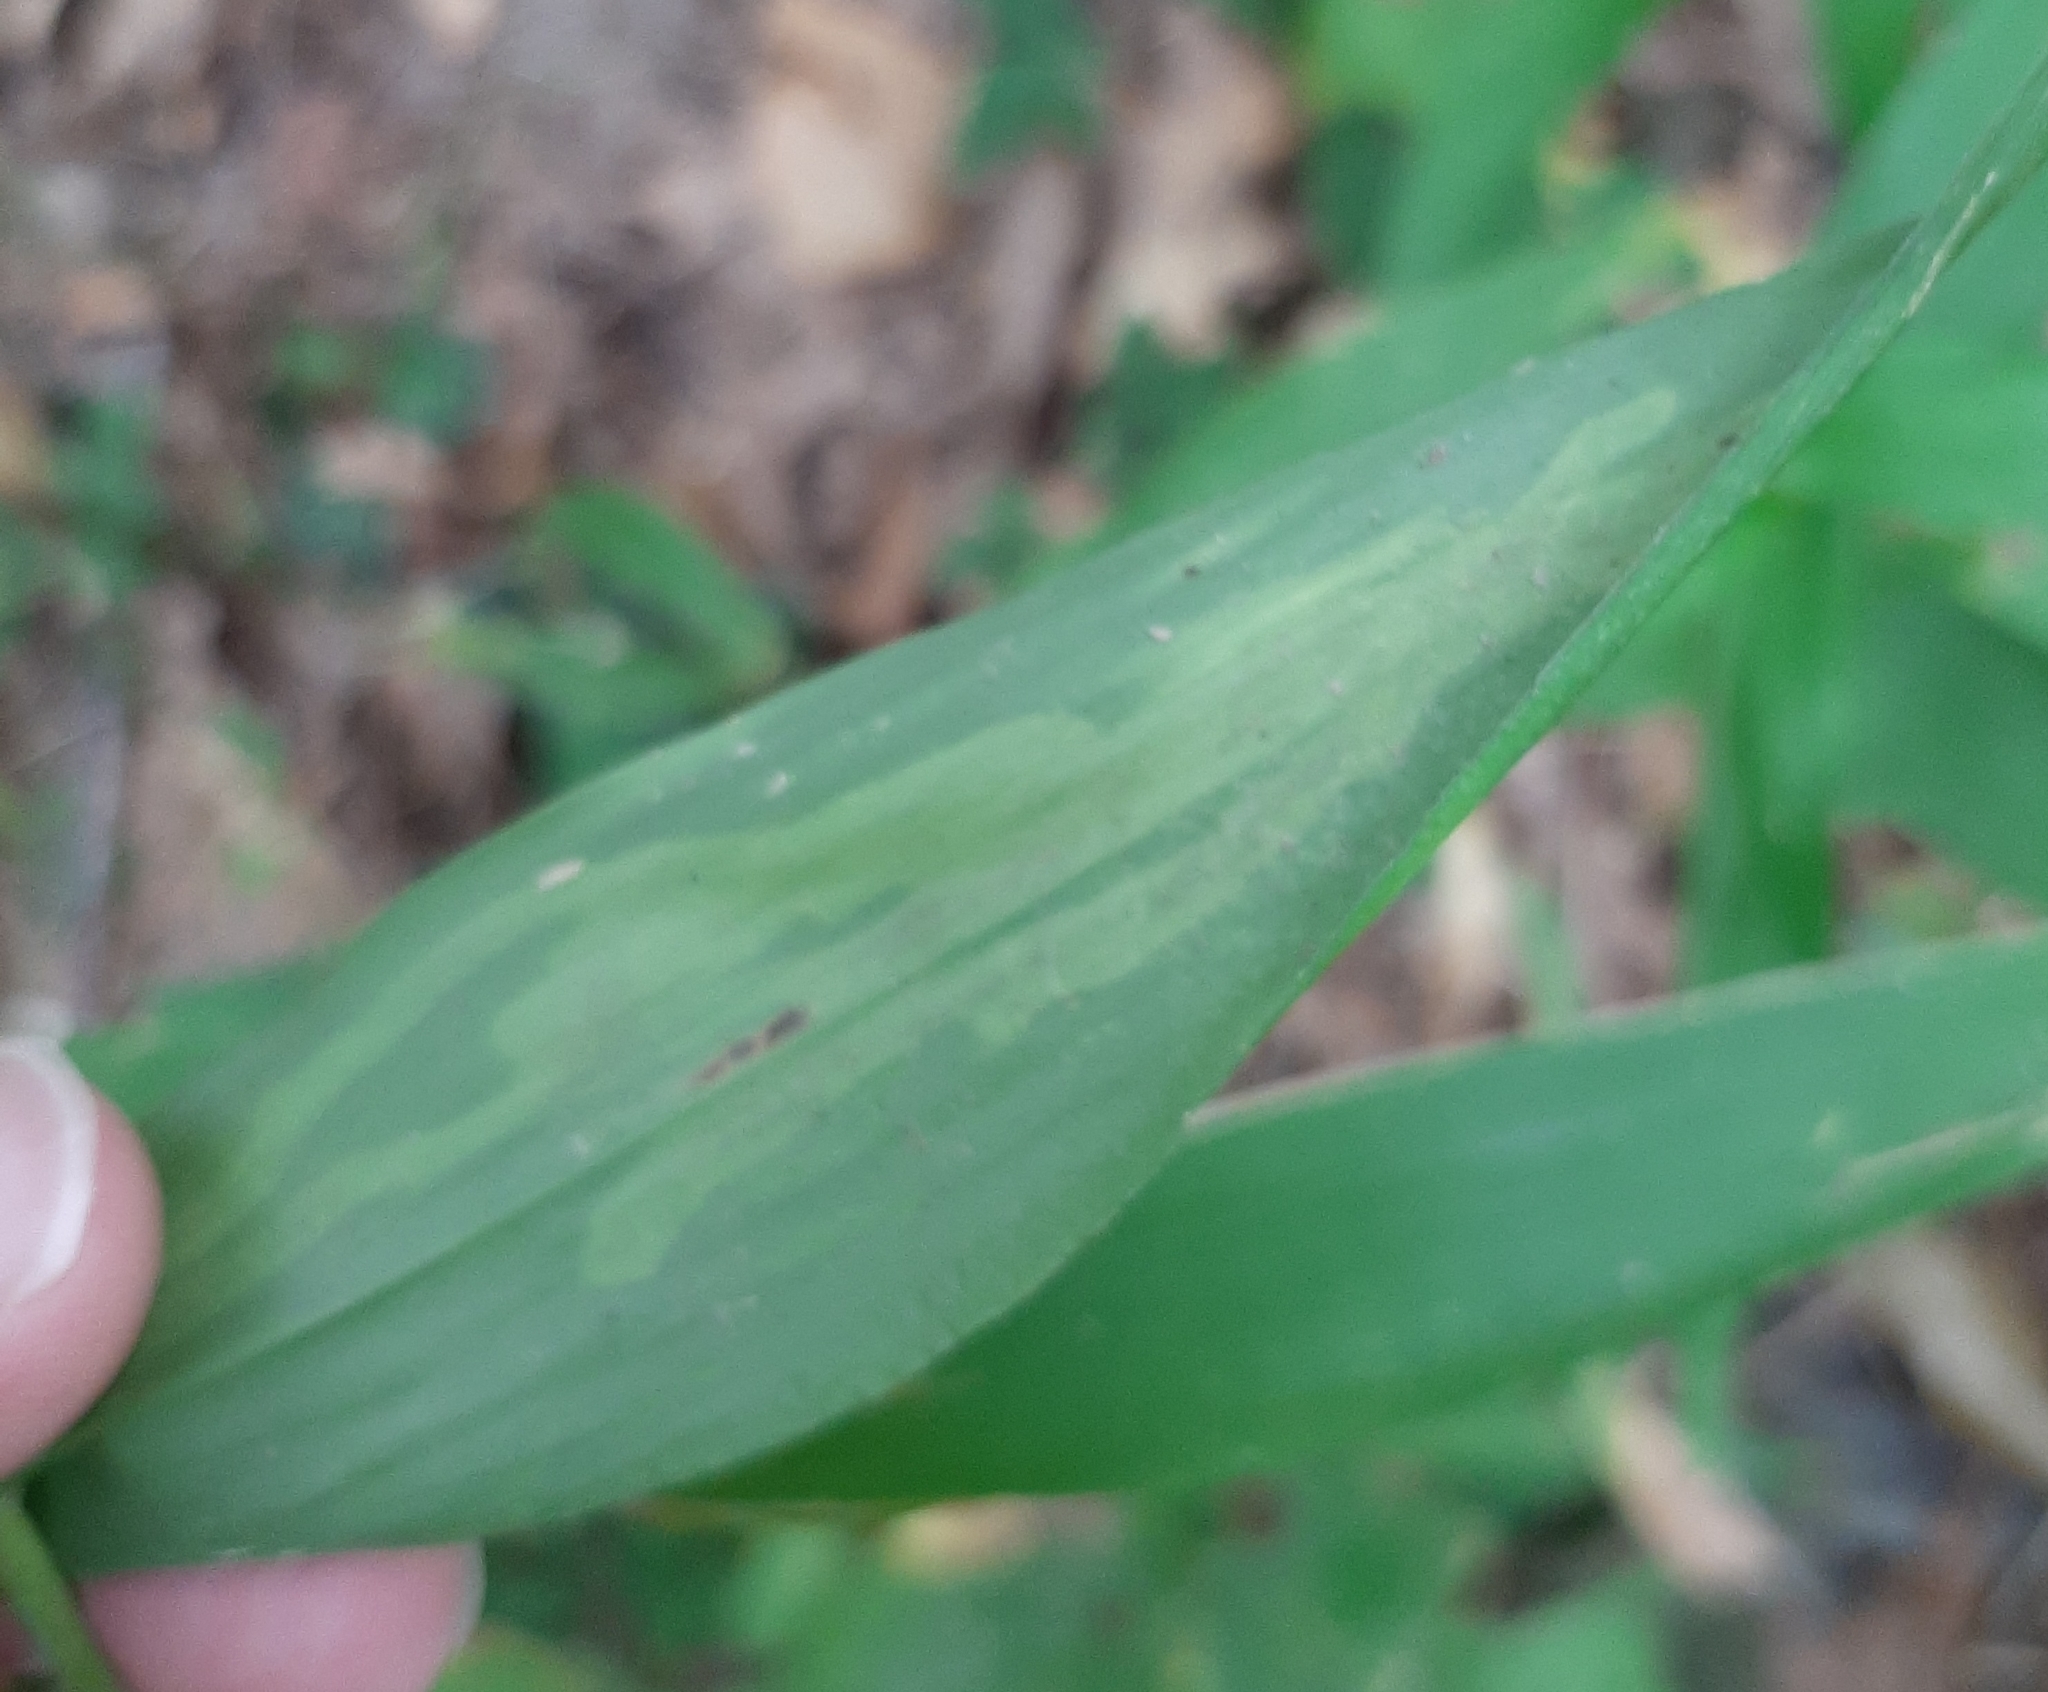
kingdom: Animalia
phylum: Arthropoda
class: Insecta
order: Diptera
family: Agromyzidae
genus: Cerodontha
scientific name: Cerodontha angulata
